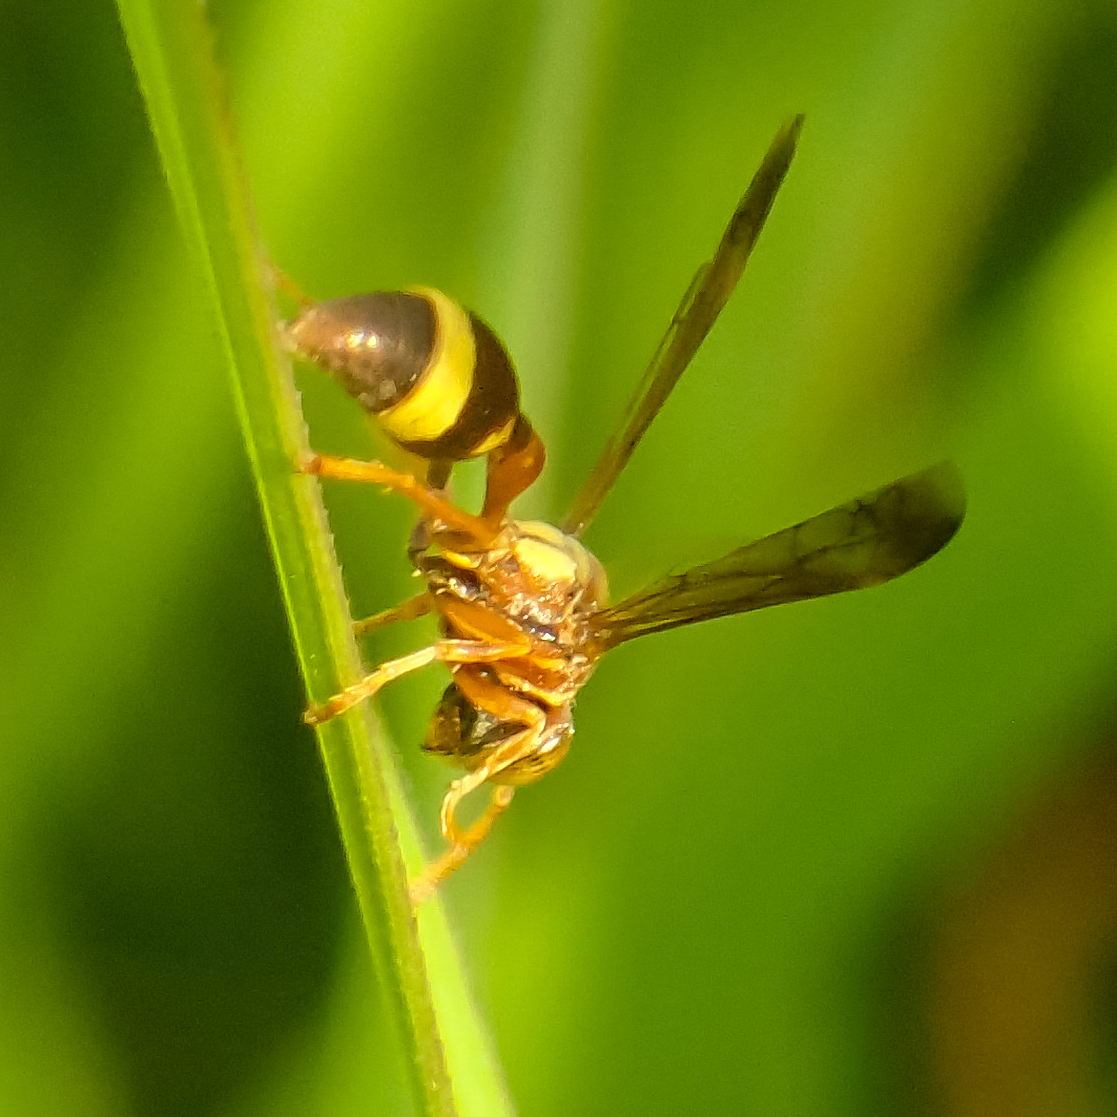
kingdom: Animalia
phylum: Arthropoda
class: Insecta
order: Hymenoptera
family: Vespidae
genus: Ropalidia
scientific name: Ropalidia fasciata
